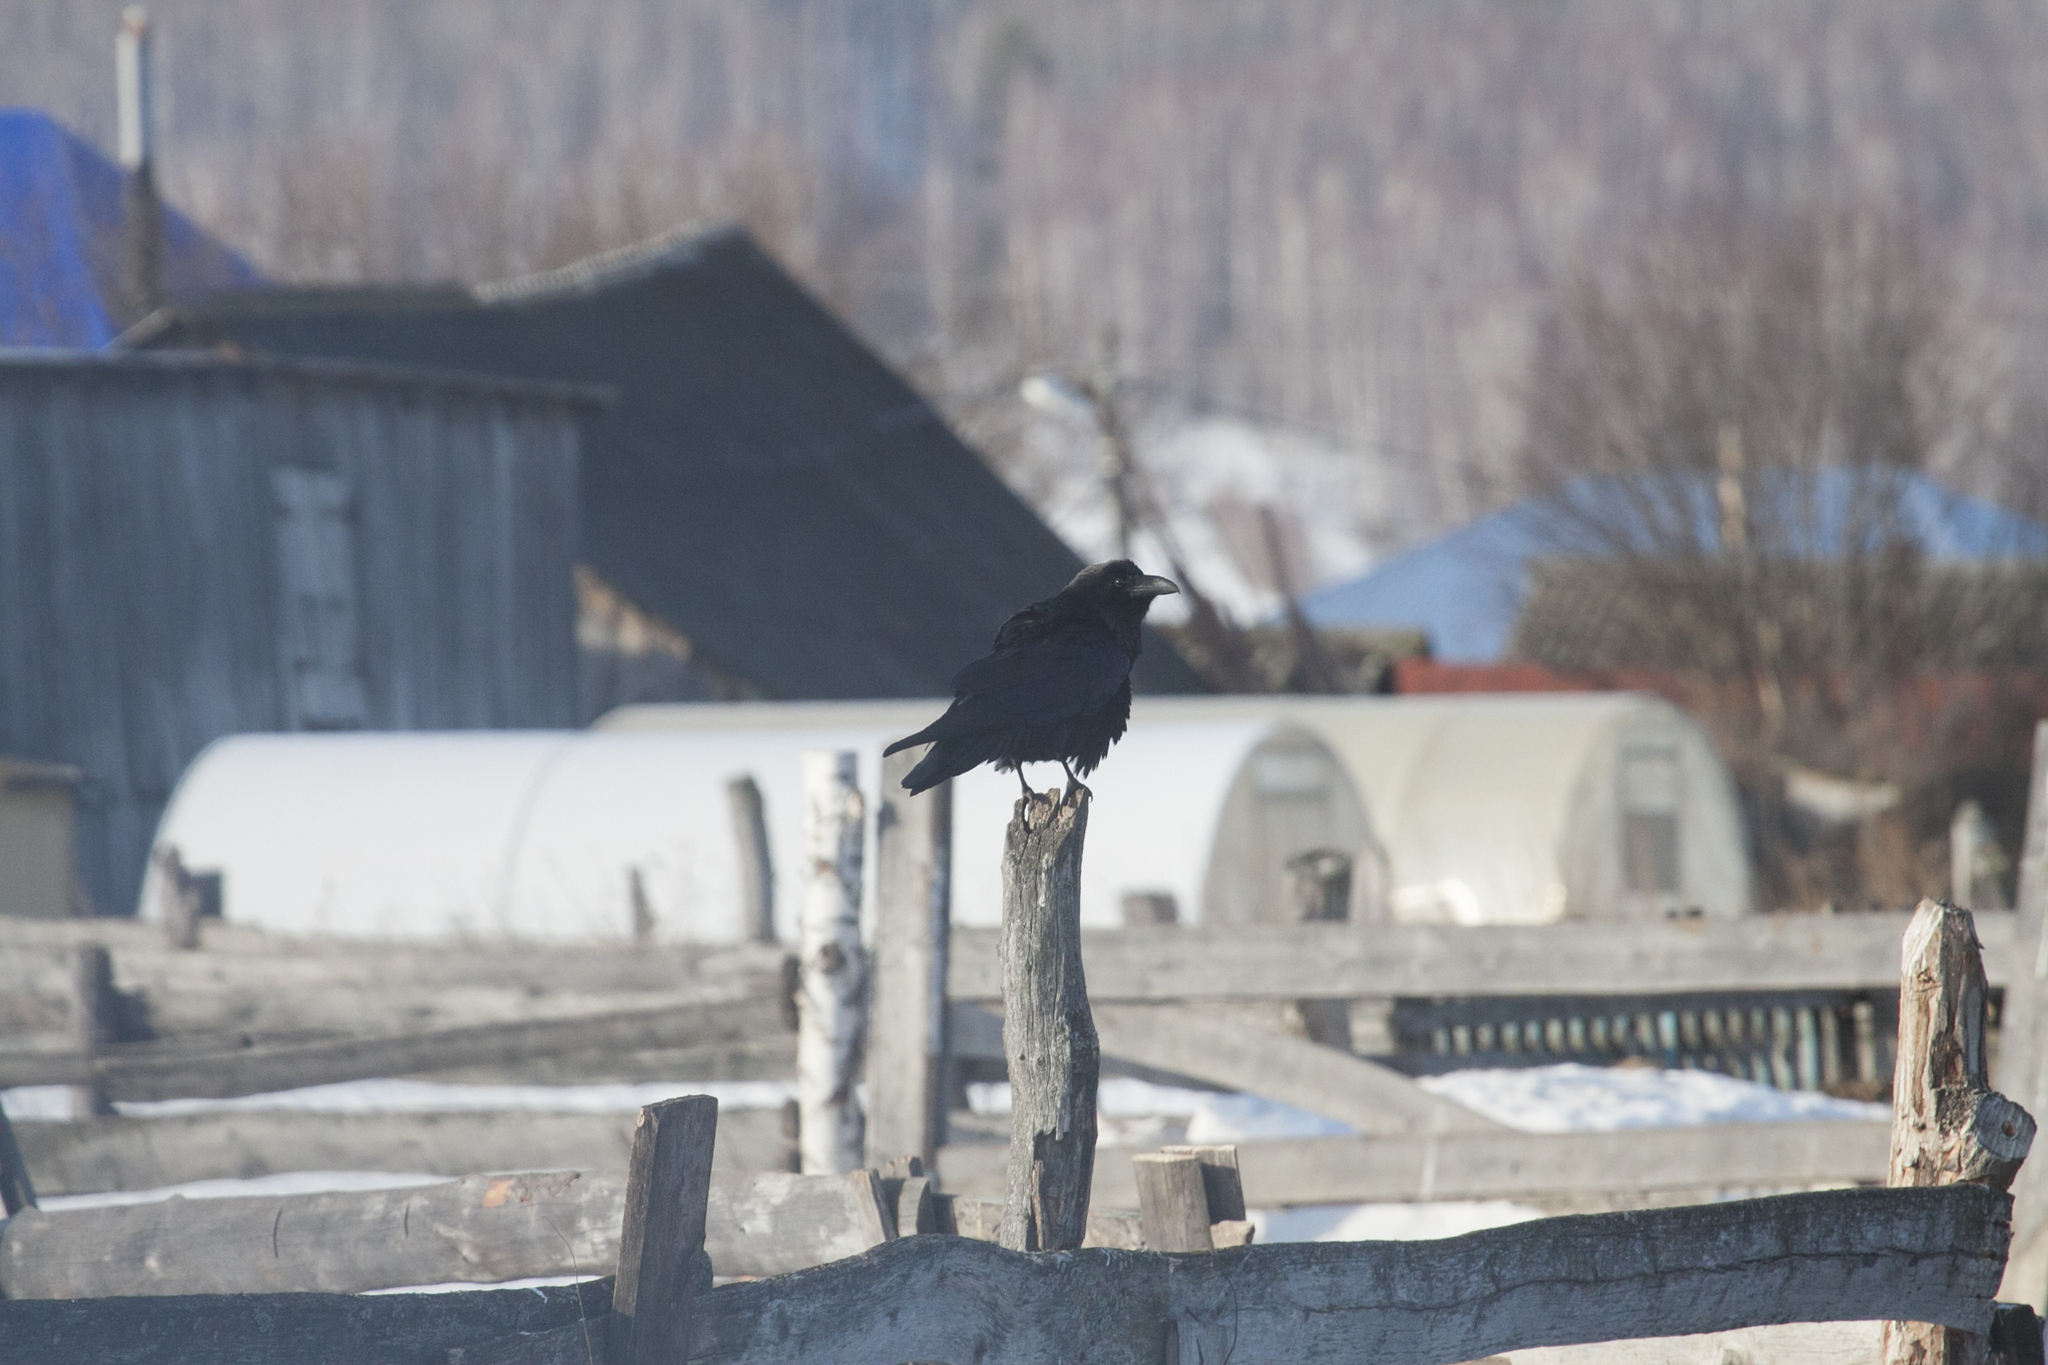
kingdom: Animalia
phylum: Chordata
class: Aves
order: Passeriformes
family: Corvidae
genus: Corvus
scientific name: Corvus corax
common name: Common raven
